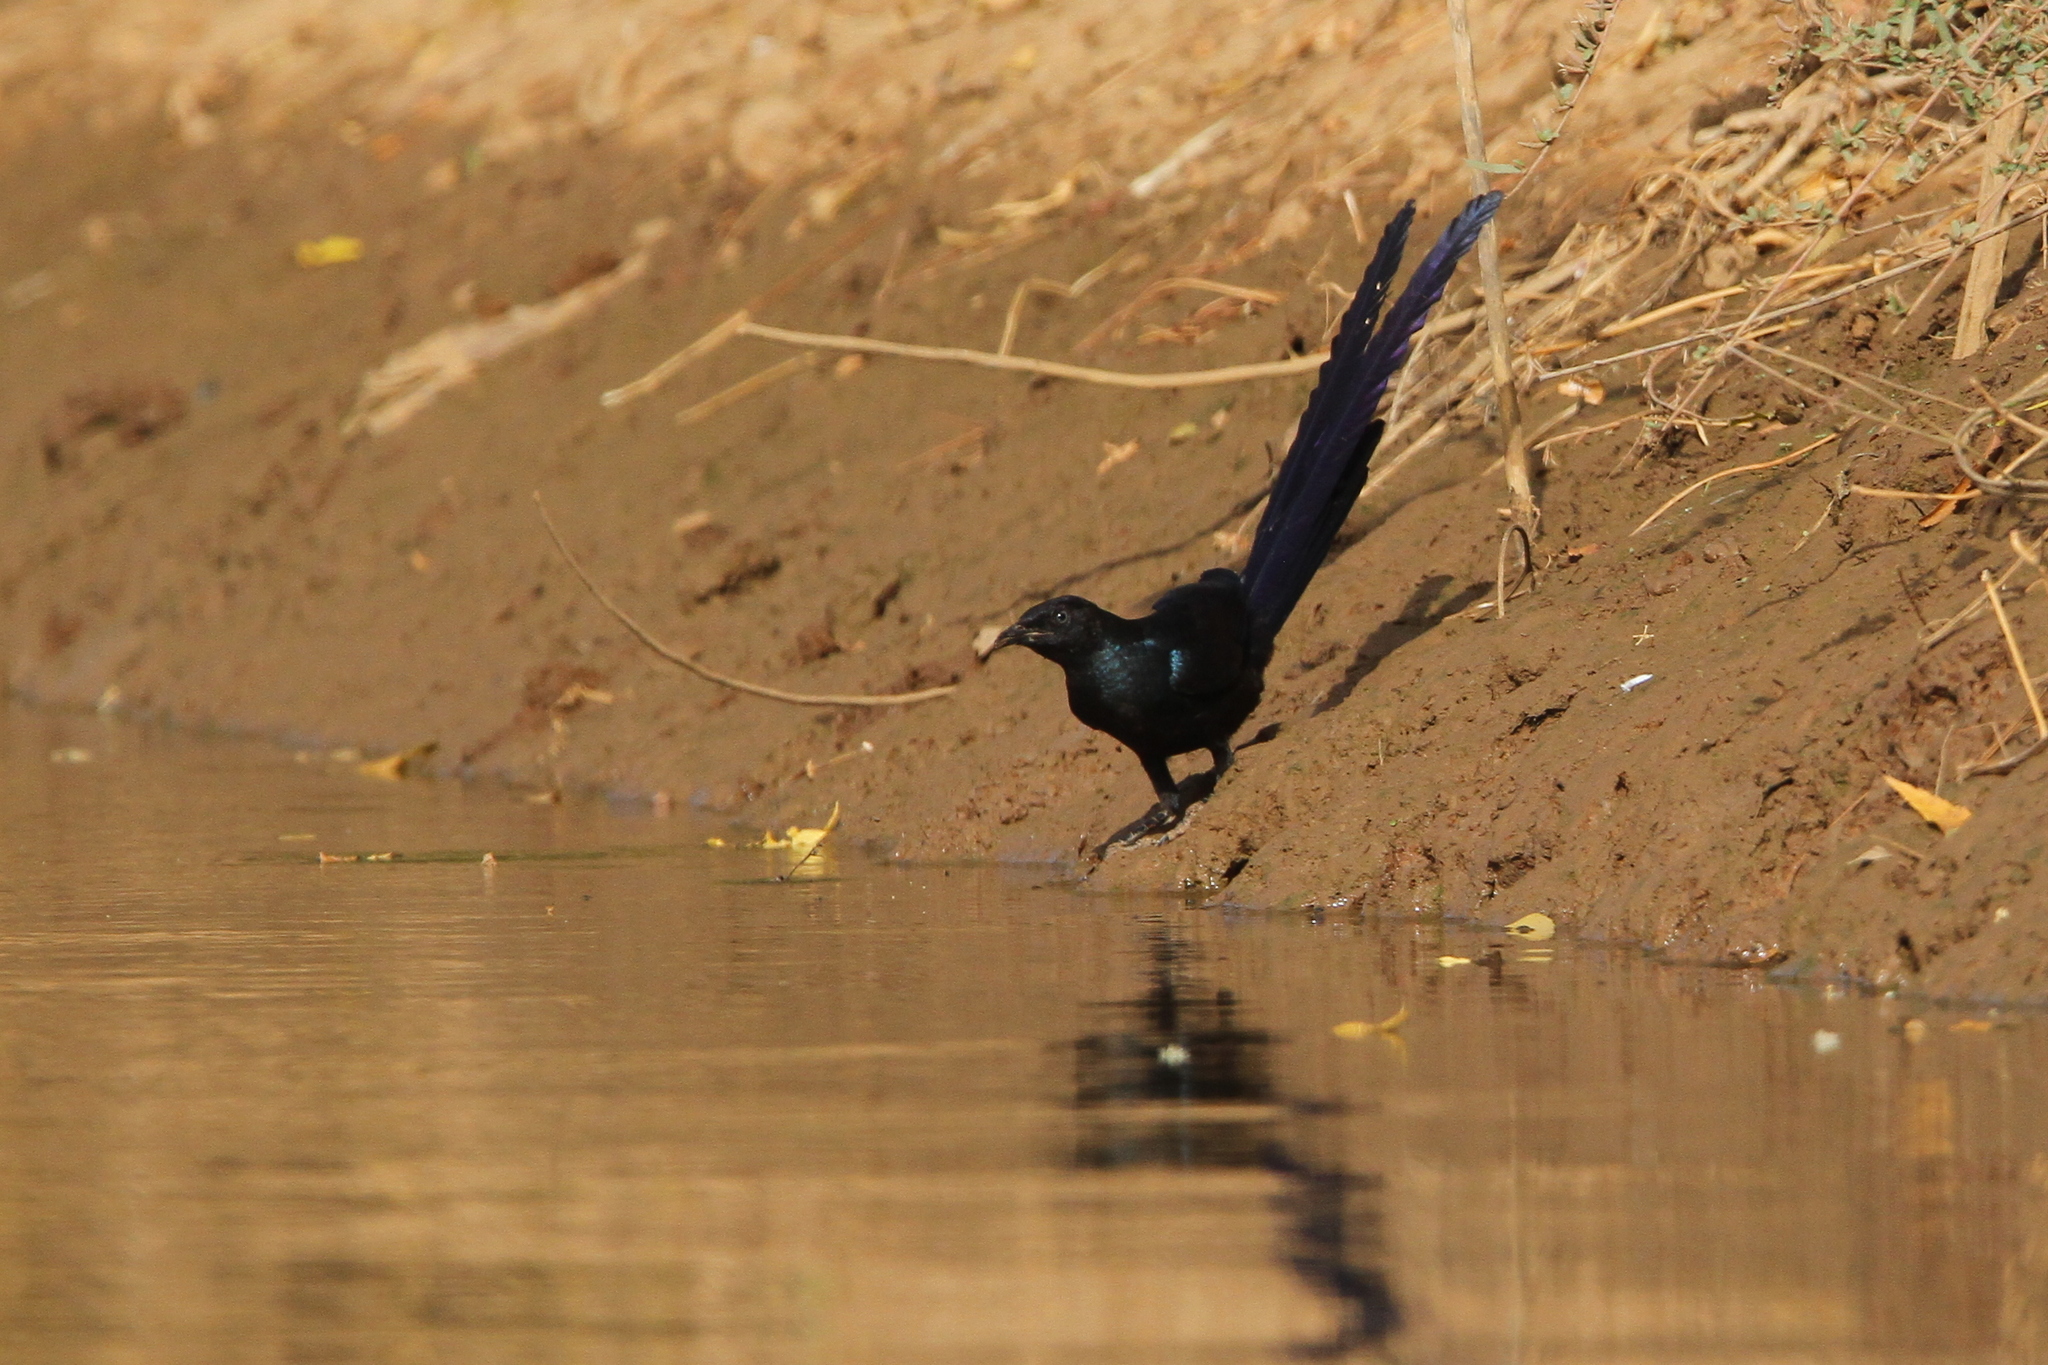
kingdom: Animalia
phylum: Chordata
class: Aves
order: Passeriformes
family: Sturnidae
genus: Lamprotornis
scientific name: Lamprotornis caudatus
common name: Long-tailed glossy starling
